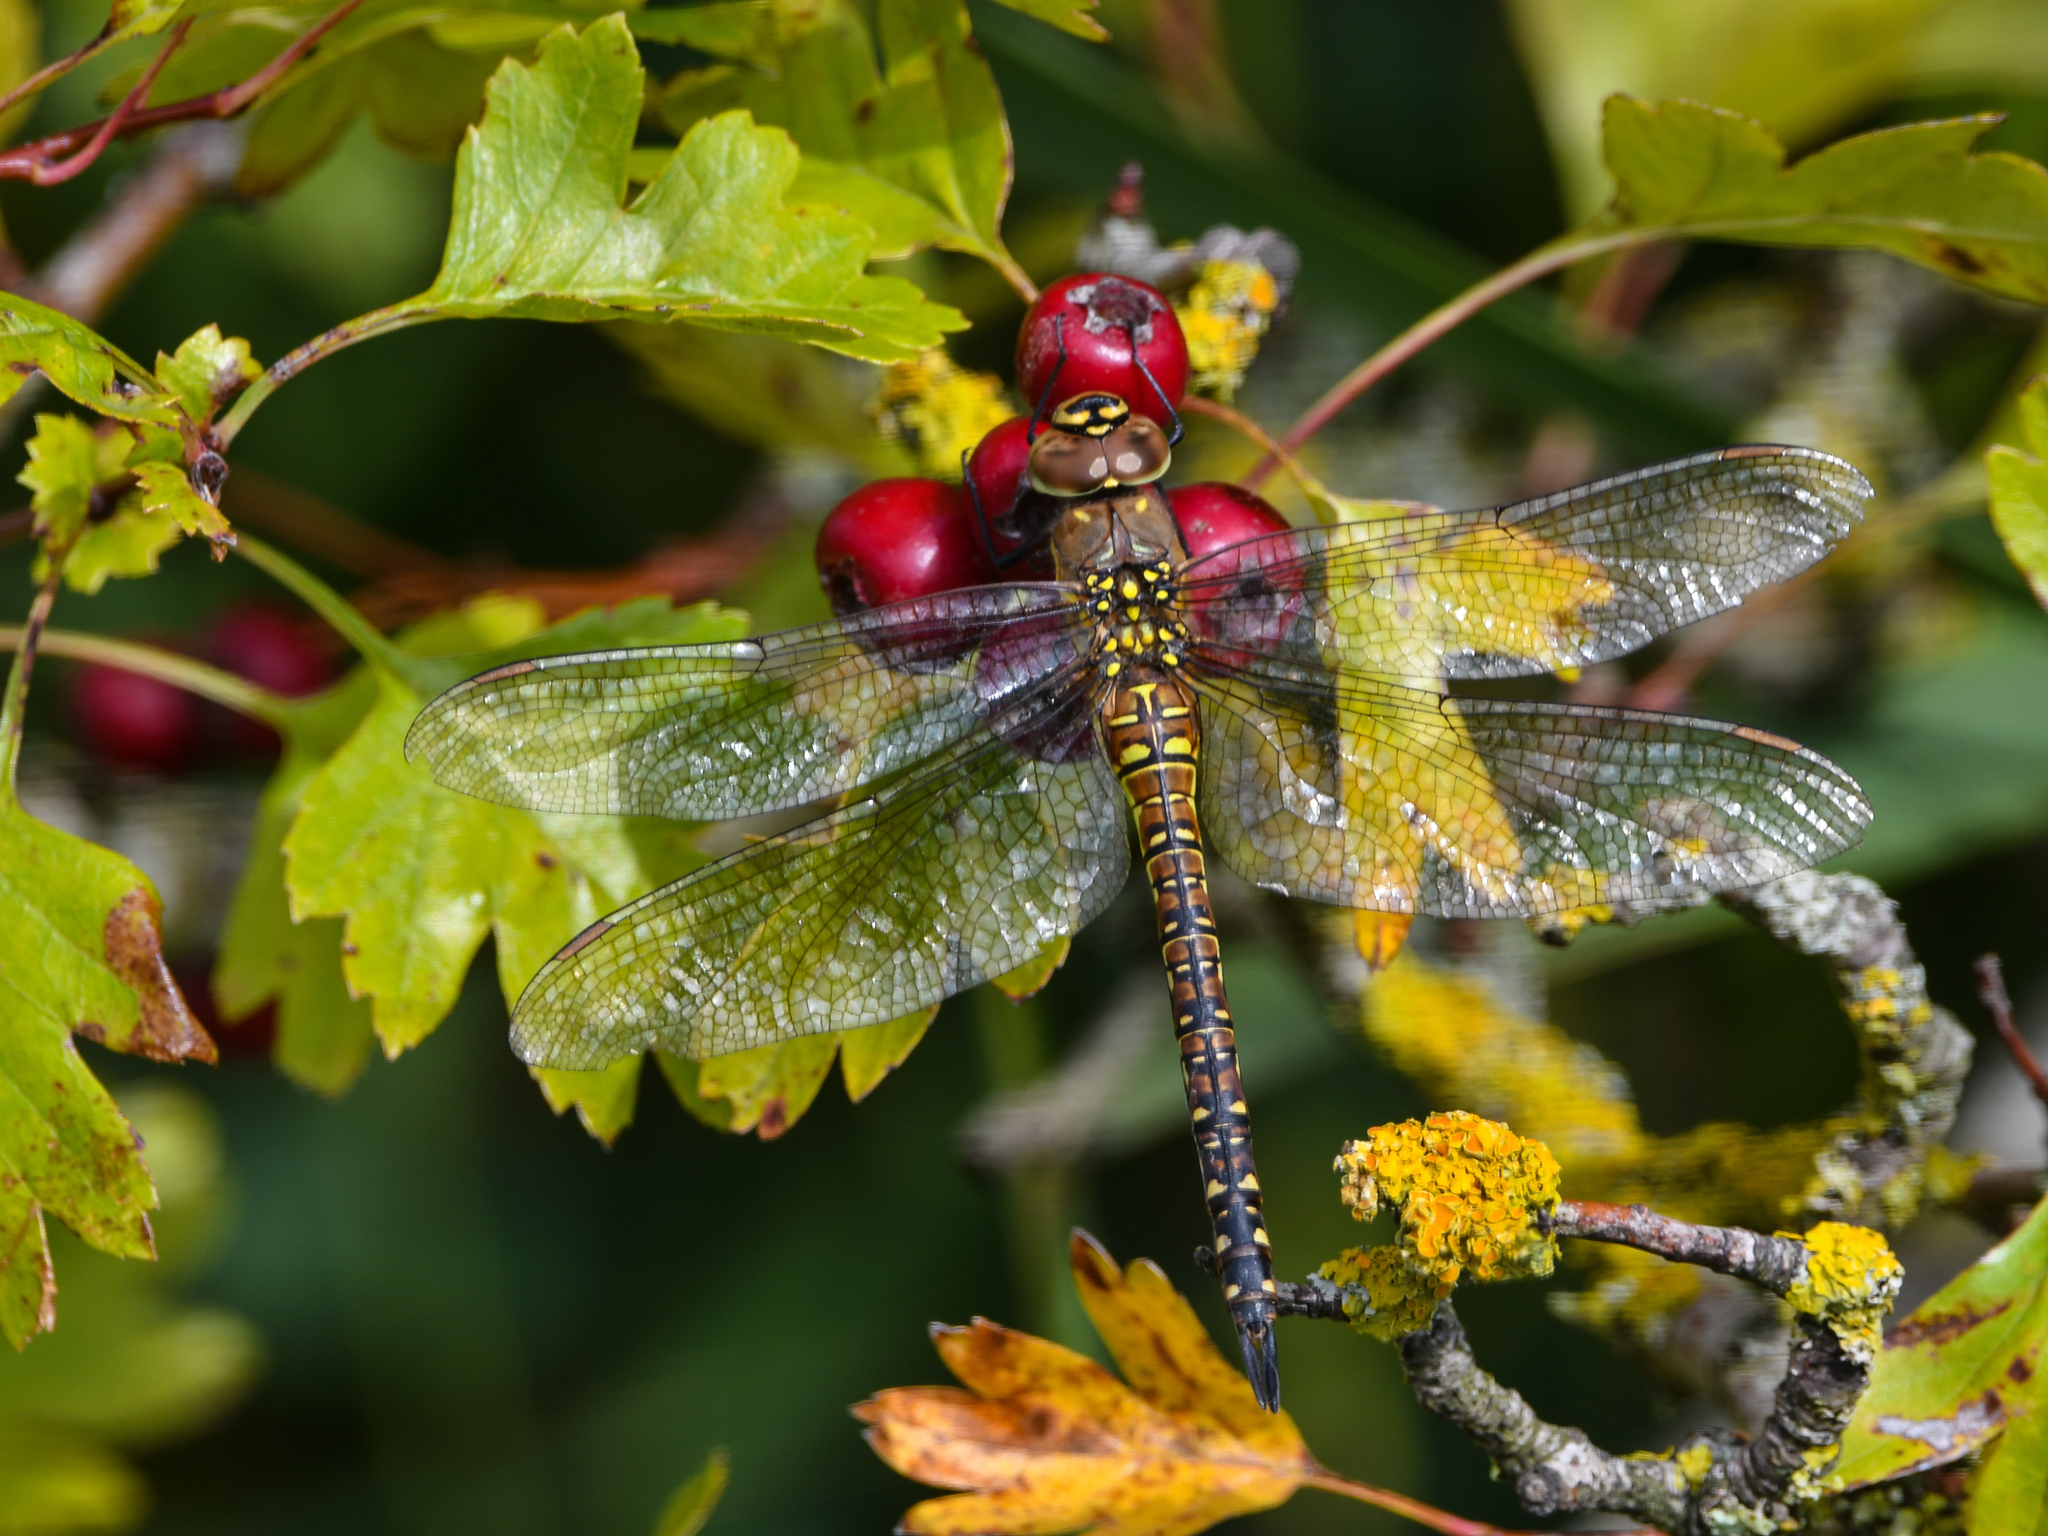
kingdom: Animalia
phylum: Arthropoda
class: Insecta
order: Odonata
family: Aeshnidae
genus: Aeshna
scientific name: Aeshna mixta
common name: Migrant hawker
